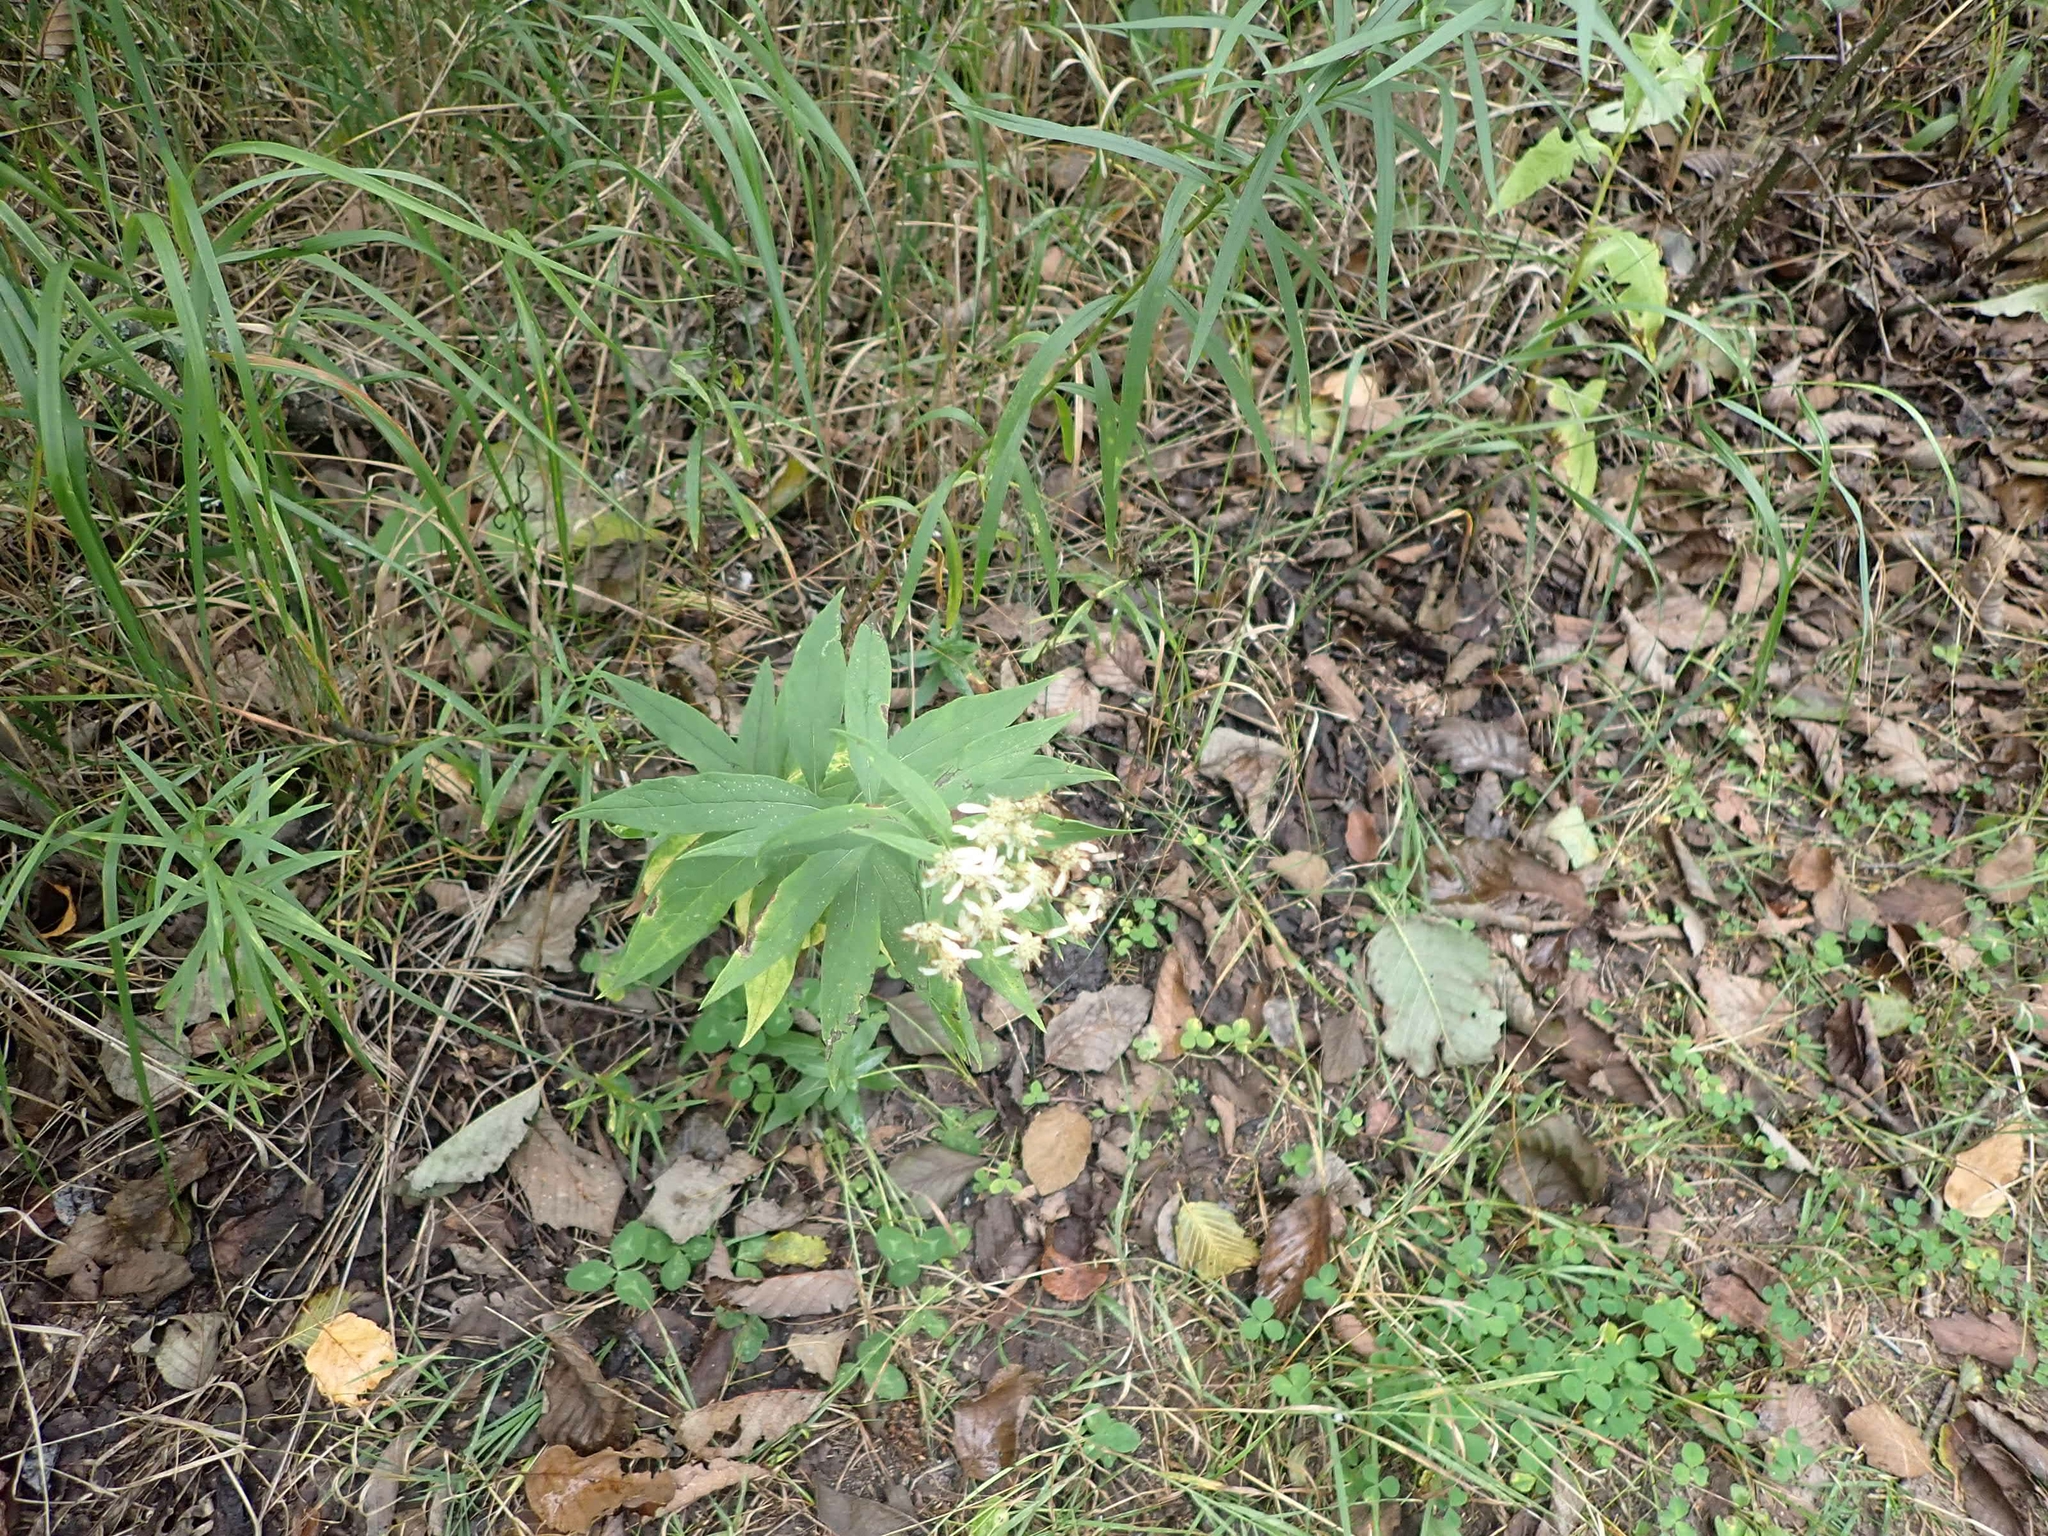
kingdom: Plantae
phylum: Tracheophyta
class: Magnoliopsida
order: Asterales
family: Asteraceae
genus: Doellingeria
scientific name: Doellingeria umbellata
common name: Flat-top white aster
